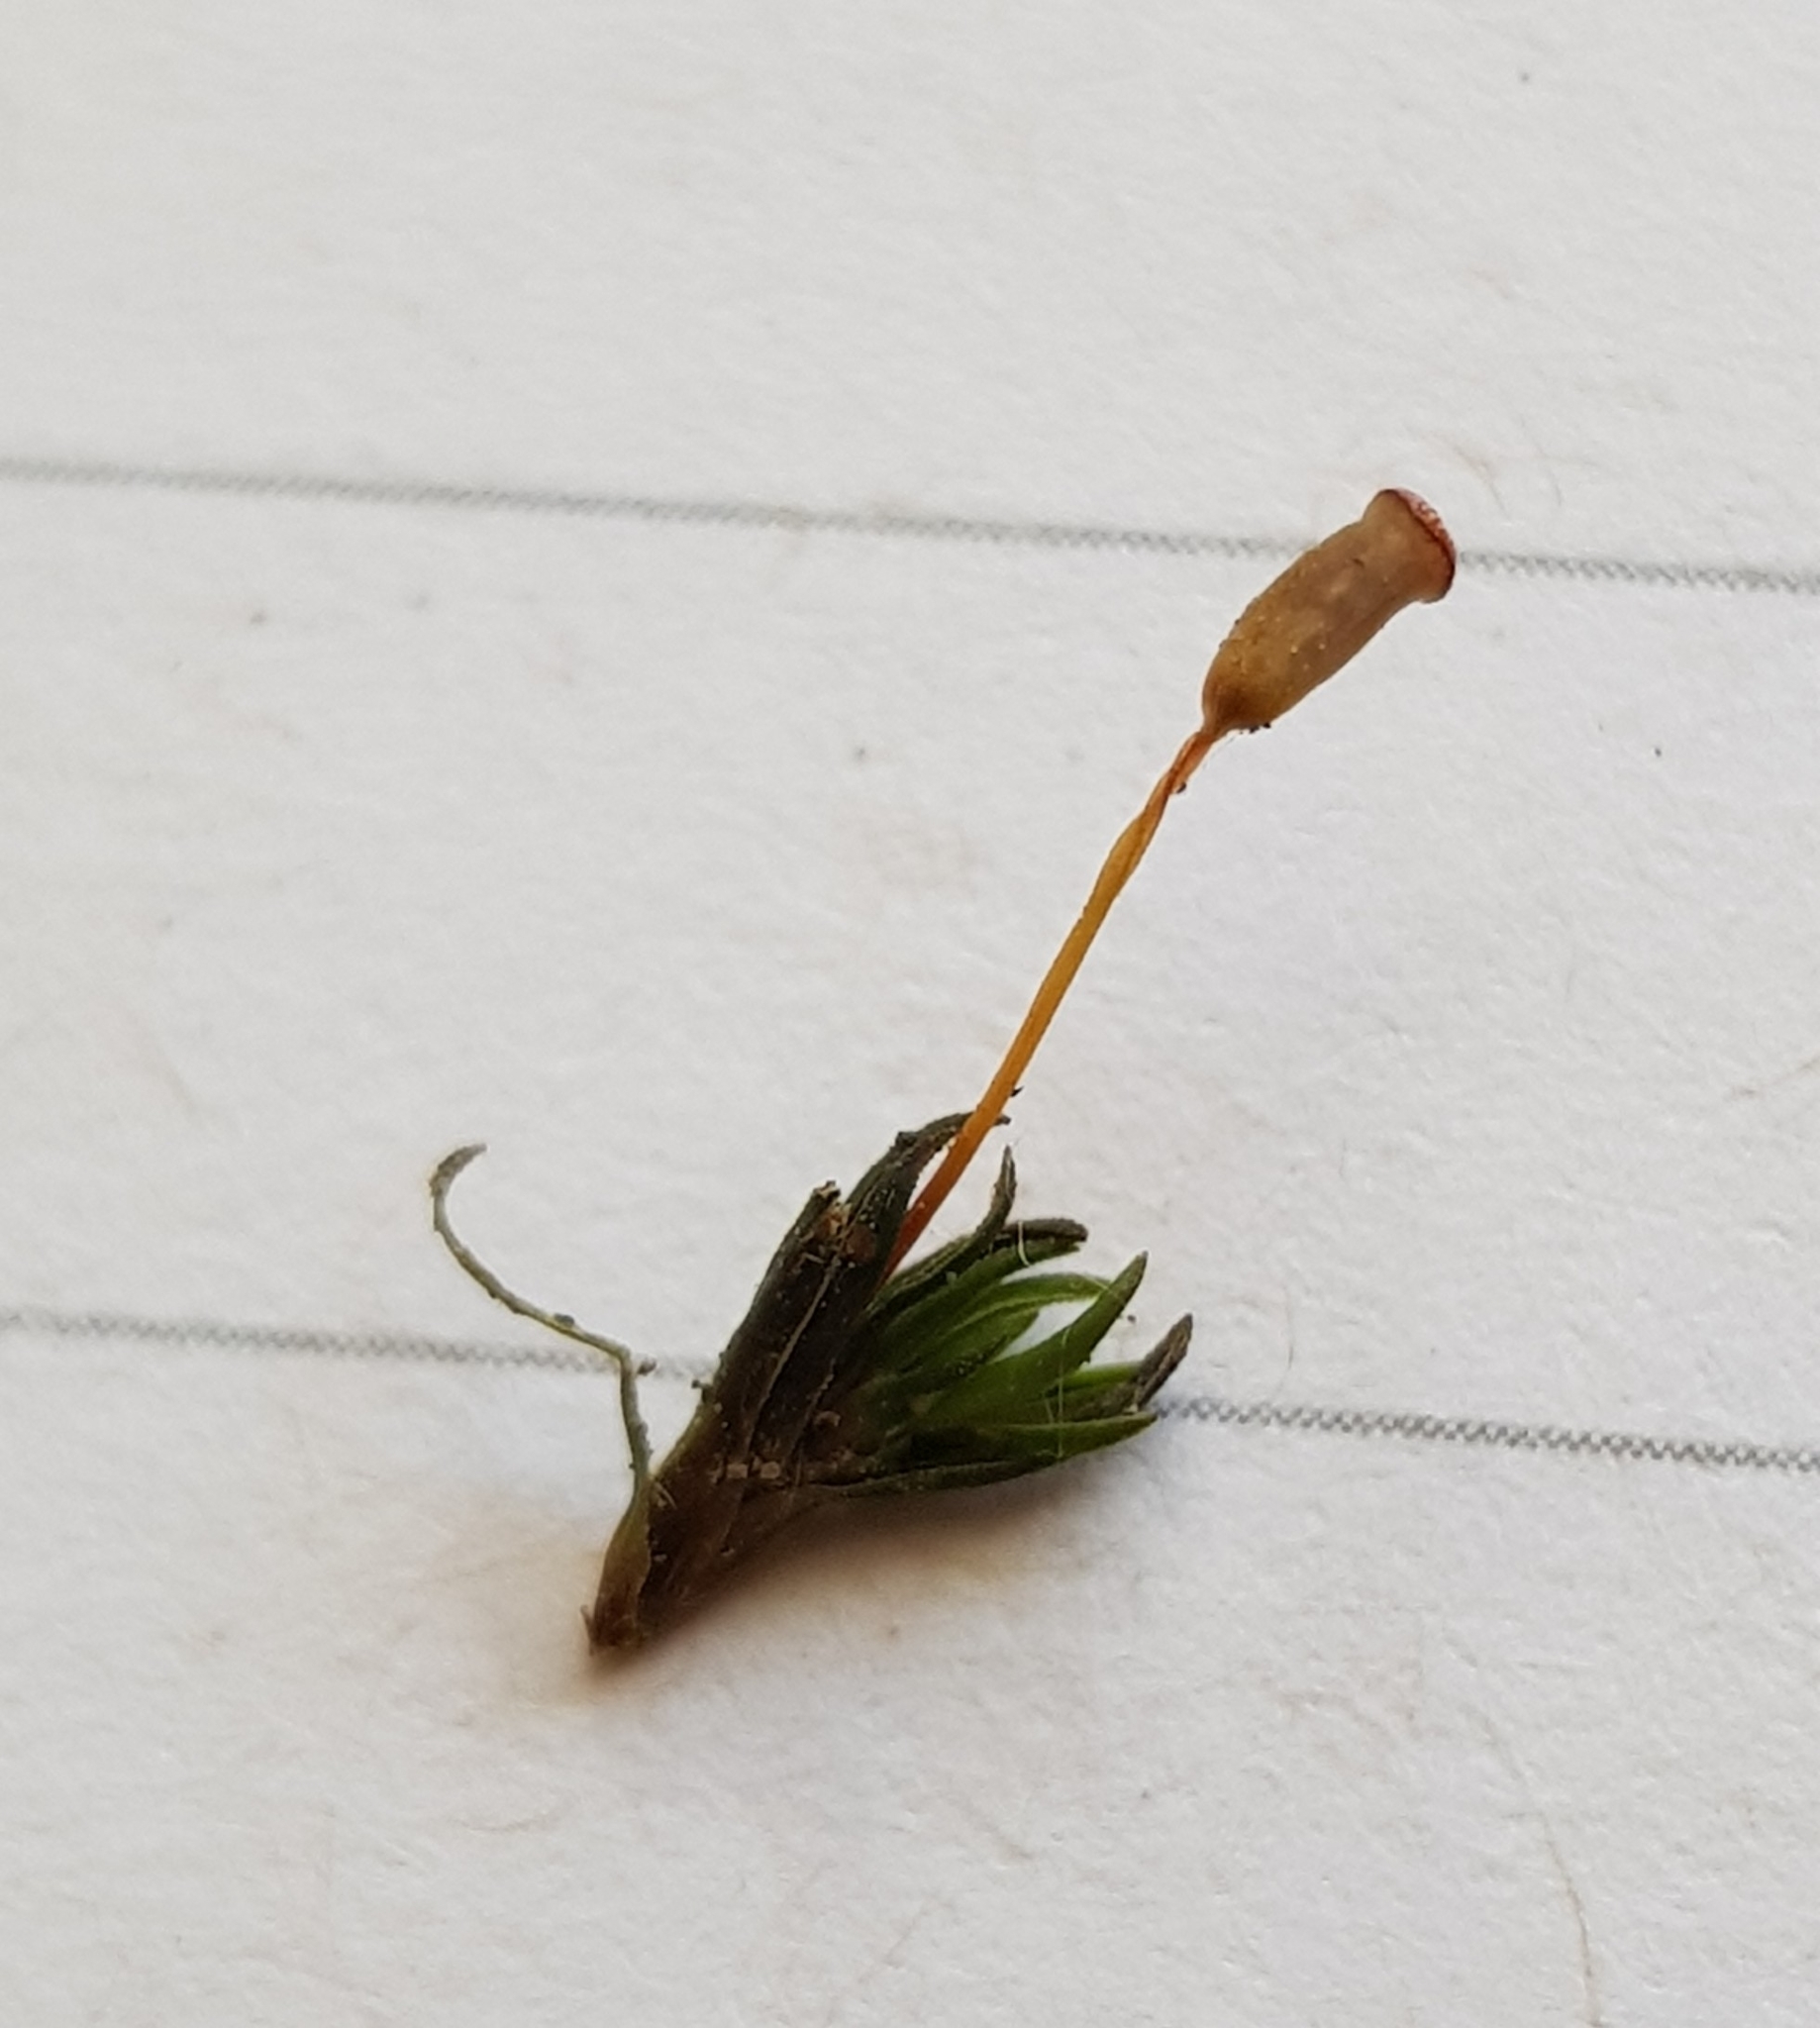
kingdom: Plantae
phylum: Bryophyta
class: Polytrichopsida
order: Polytrichales
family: Polytrichaceae
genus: Pogonatum
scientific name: Pogonatum aloides
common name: Aloe haircap
